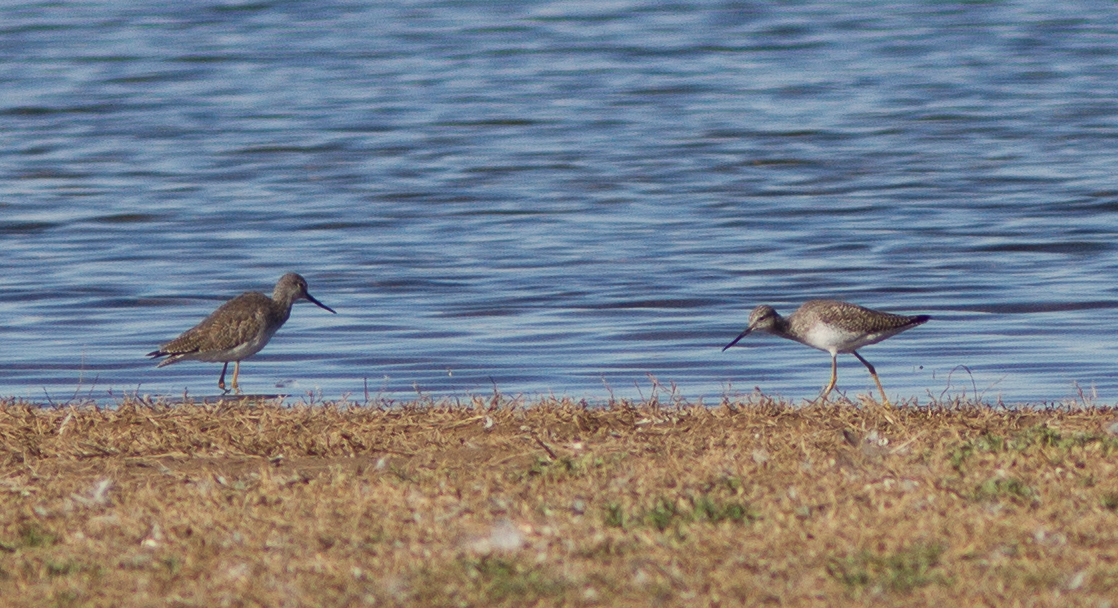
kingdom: Animalia
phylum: Chordata
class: Aves
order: Charadriiformes
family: Scolopacidae
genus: Tringa
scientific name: Tringa melanoleuca
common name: Greater yellowlegs
